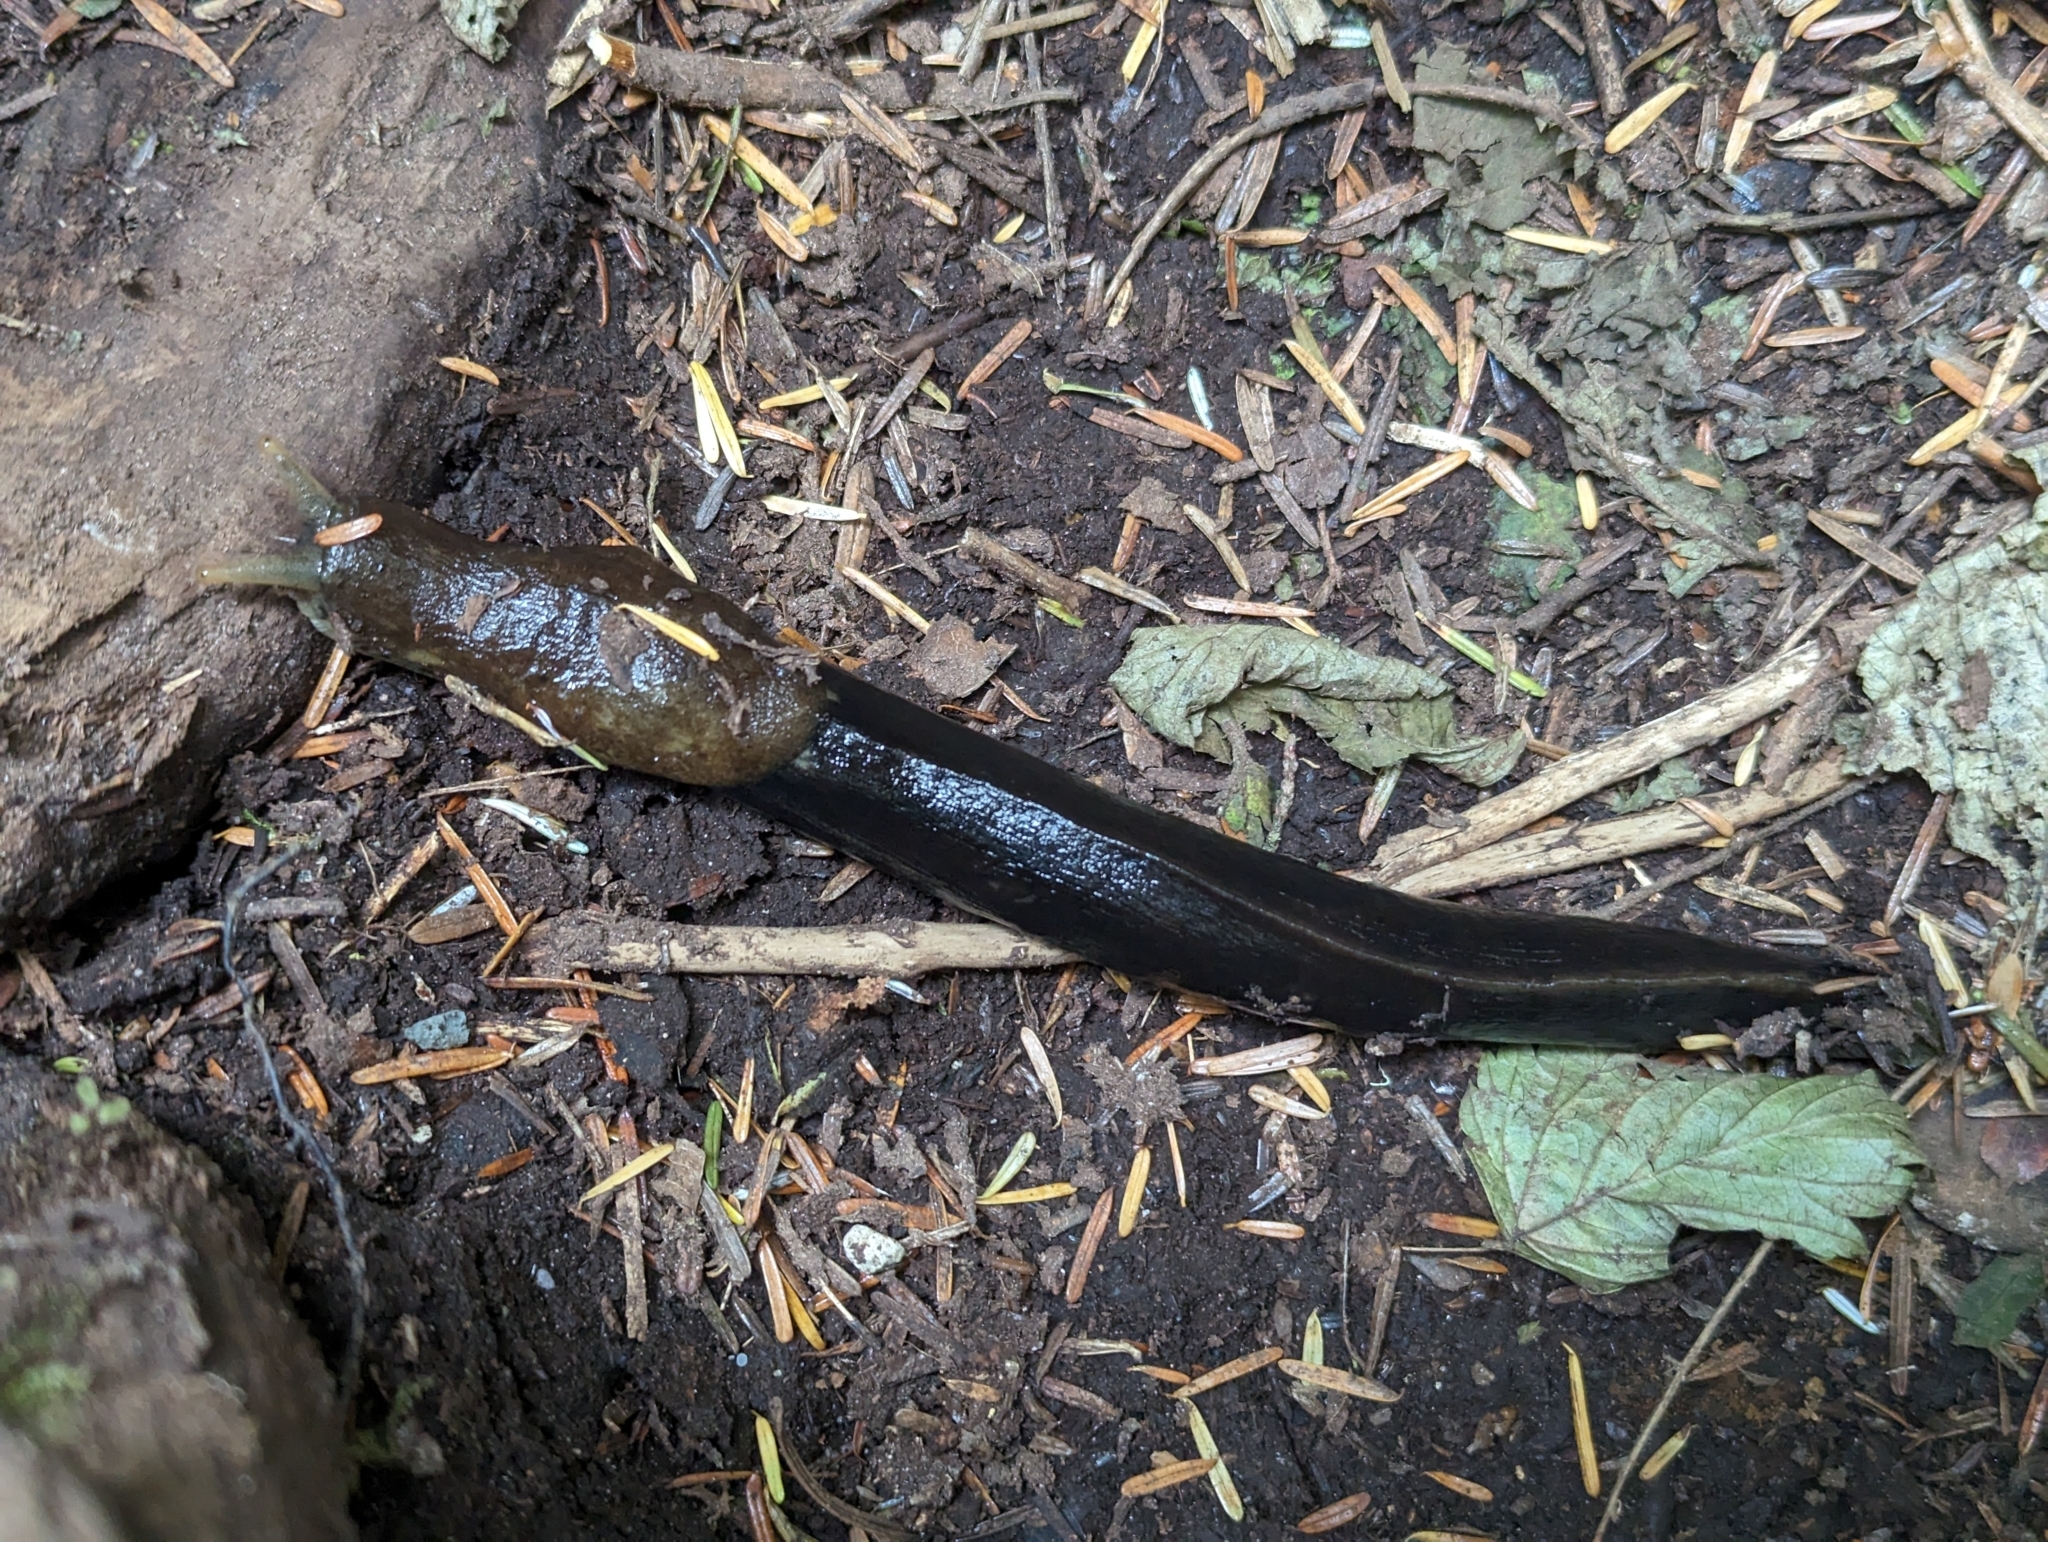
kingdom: Animalia
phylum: Mollusca
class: Gastropoda
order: Stylommatophora
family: Ariolimacidae
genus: Ariolimax
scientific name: Ariolimax columbianus
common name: Pacific banana slug
